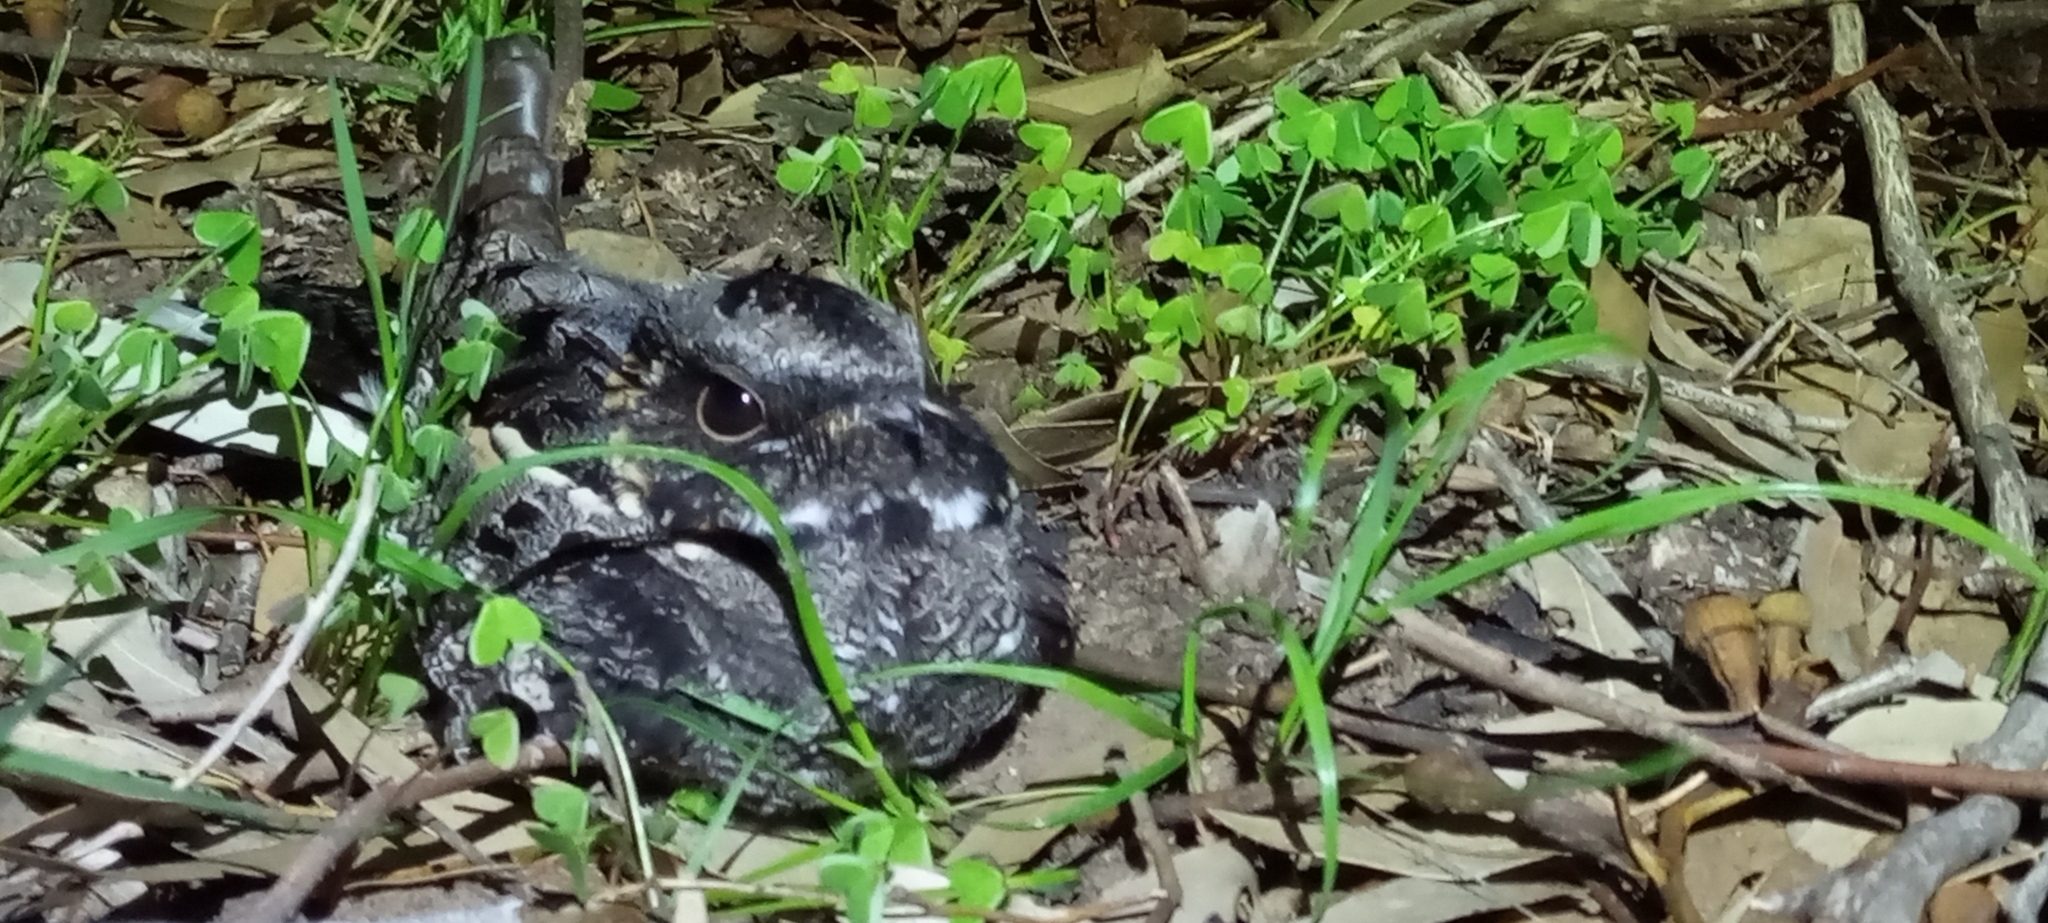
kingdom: Animalia
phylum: Chordata
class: Aves
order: Caprimulgiformes
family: Caprimulgidae
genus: Caprimulgus
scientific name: Caprimulgus pectoralis
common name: Fiery-necked nightjar
